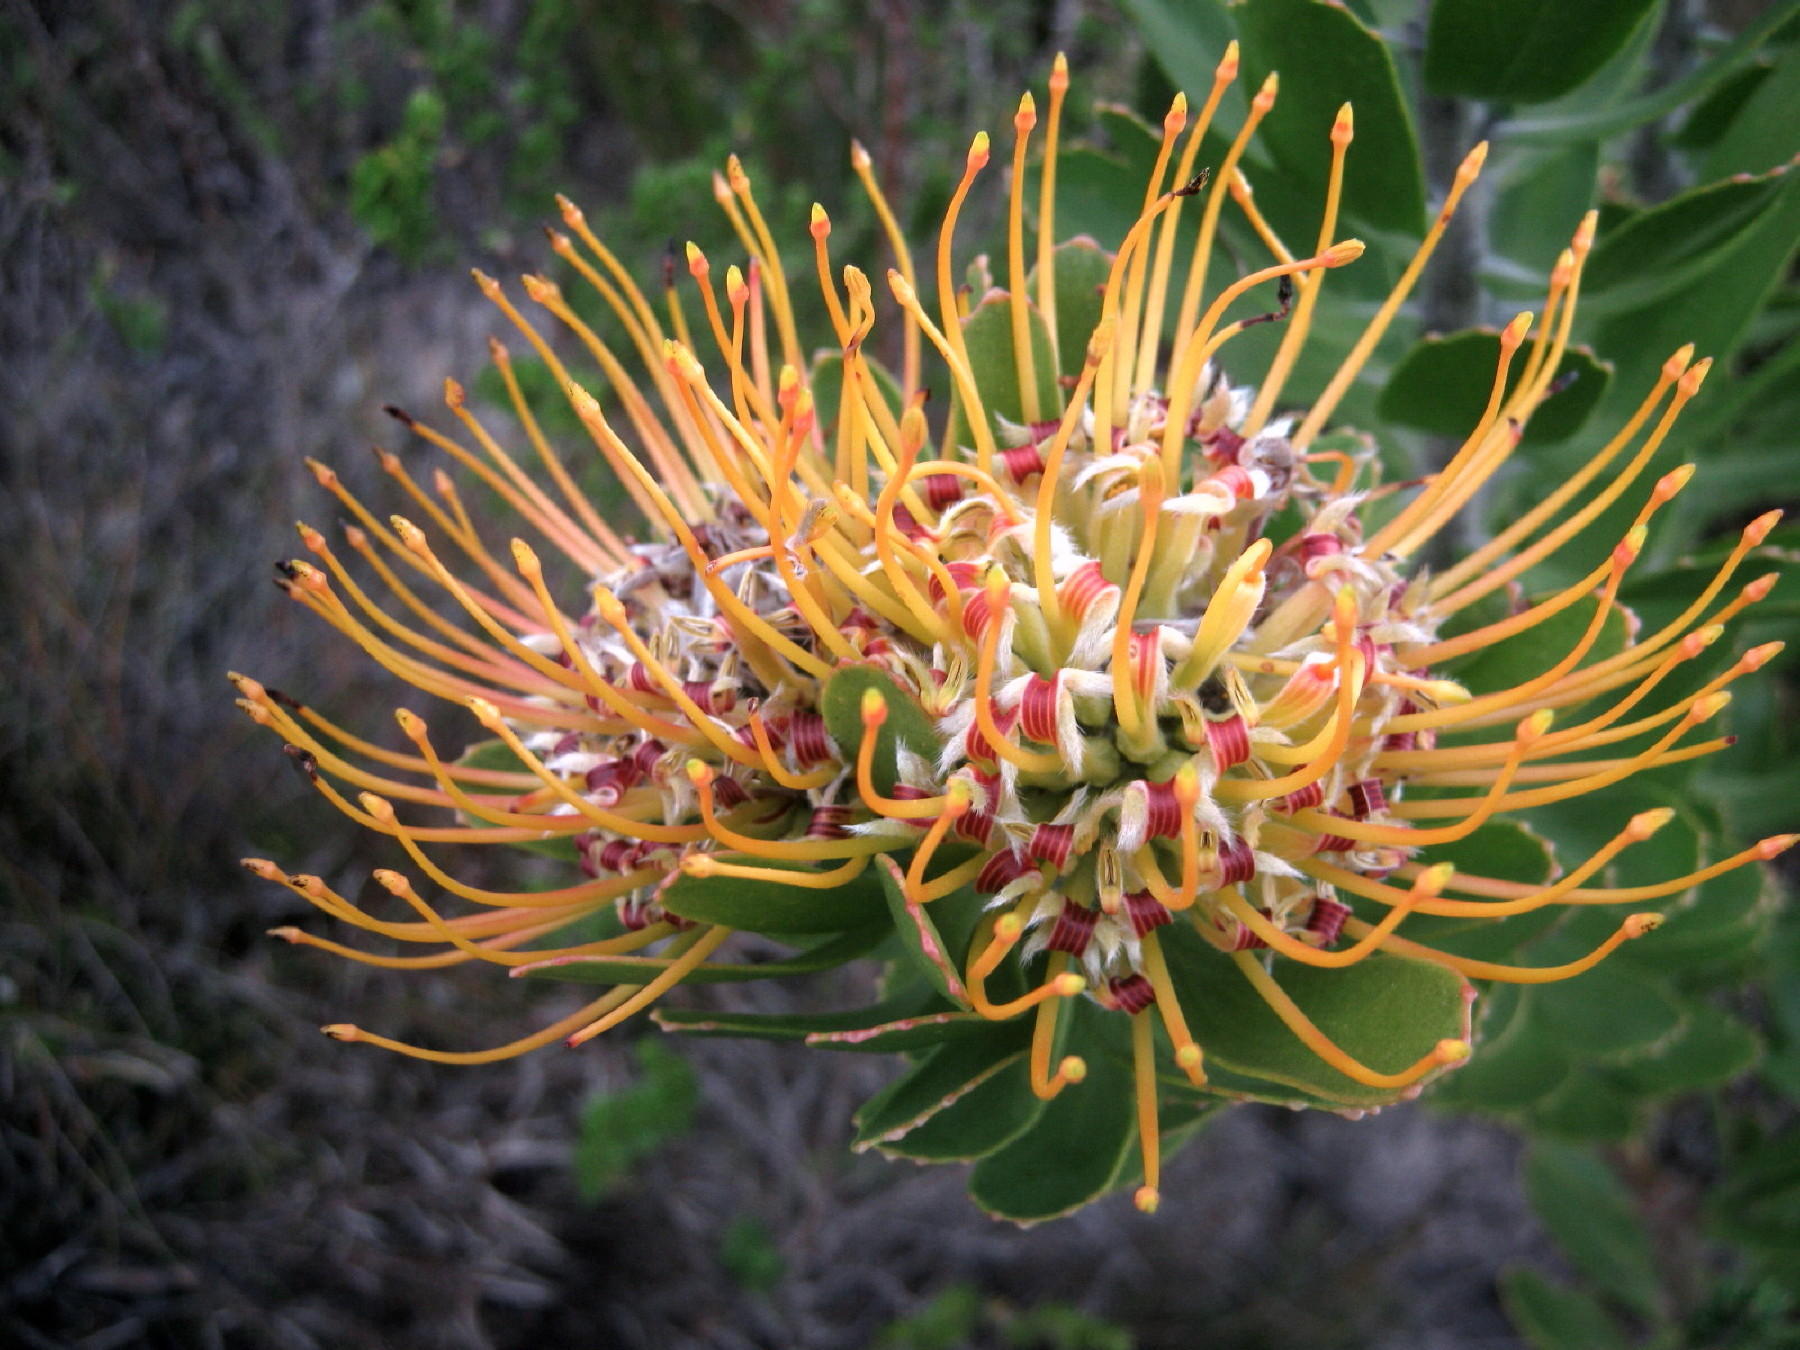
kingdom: Plantae
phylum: Tracheophyta
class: Magnoliopsida
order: Proteales
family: Proteaceae
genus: Leucospermum
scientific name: Leucospermum praecox
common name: Mossel bay pincushion
